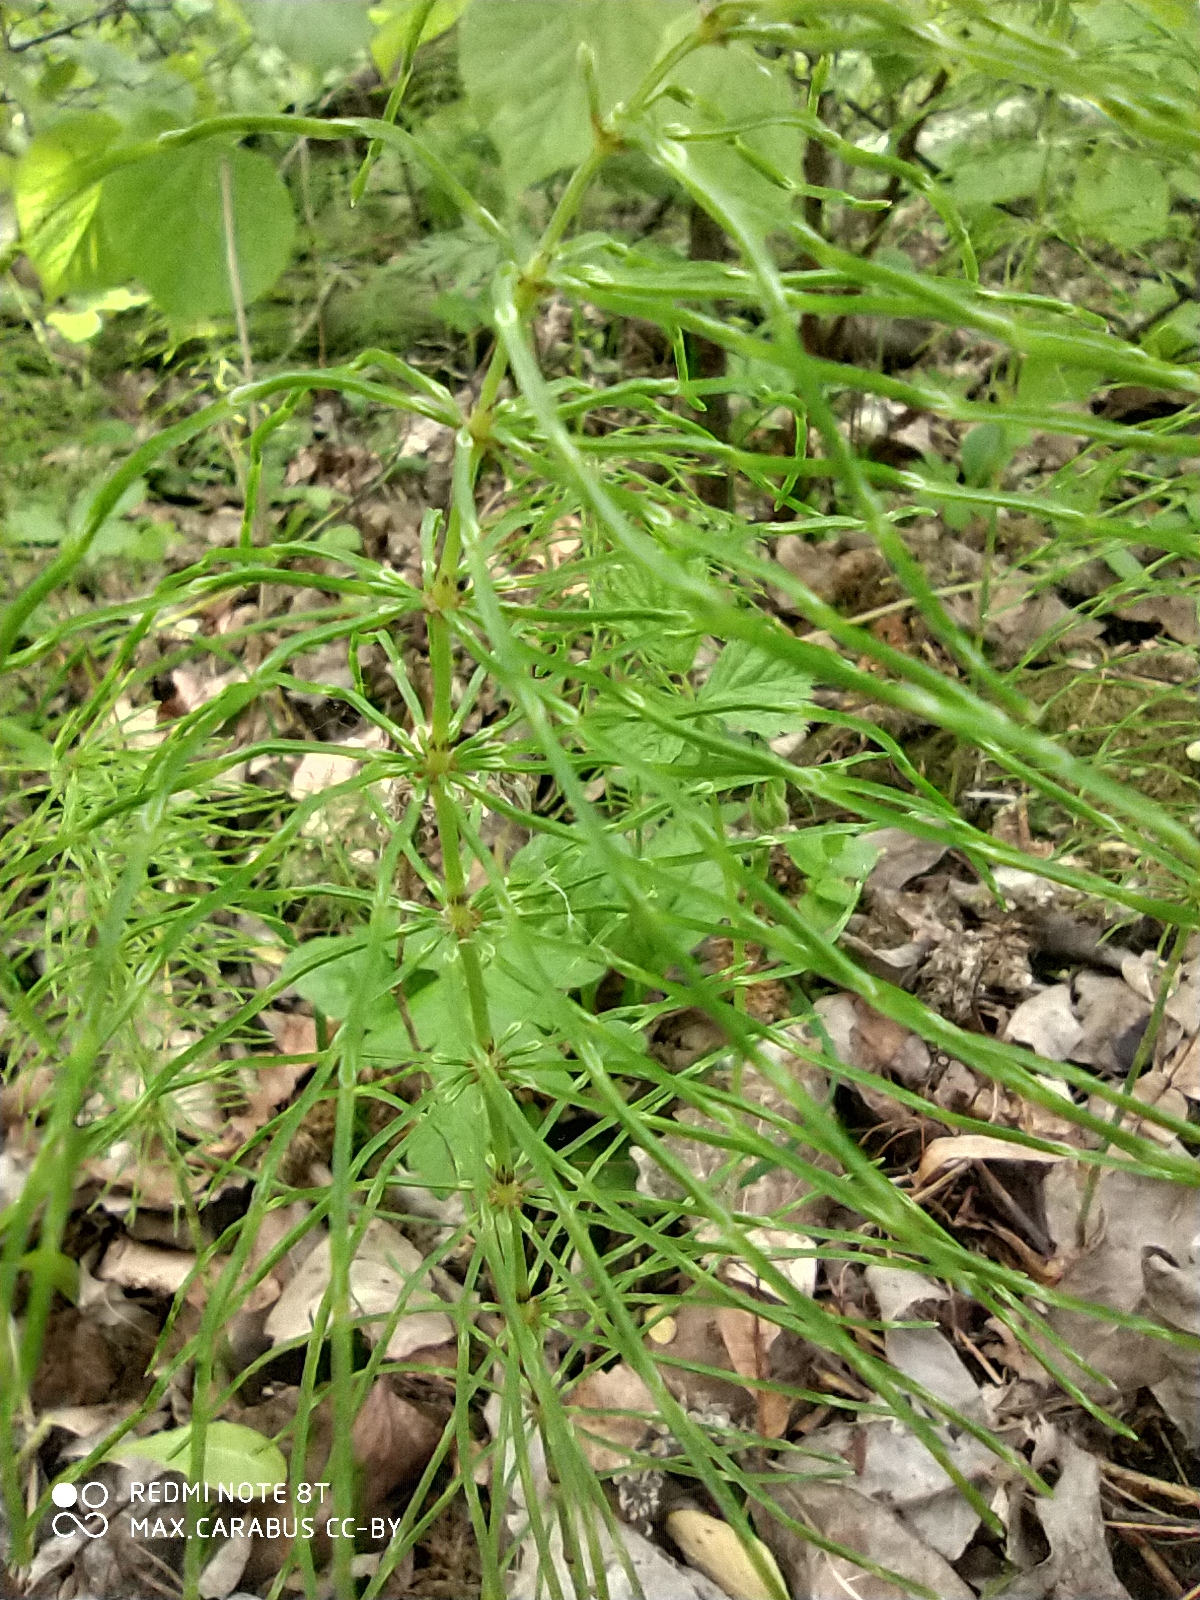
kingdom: Plantae
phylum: Tracheophyta
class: Polypodiopsida
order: Equisetales
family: Equisetaceae
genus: Equisetum
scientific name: Equisetum pratense
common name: Meadow horsetail
